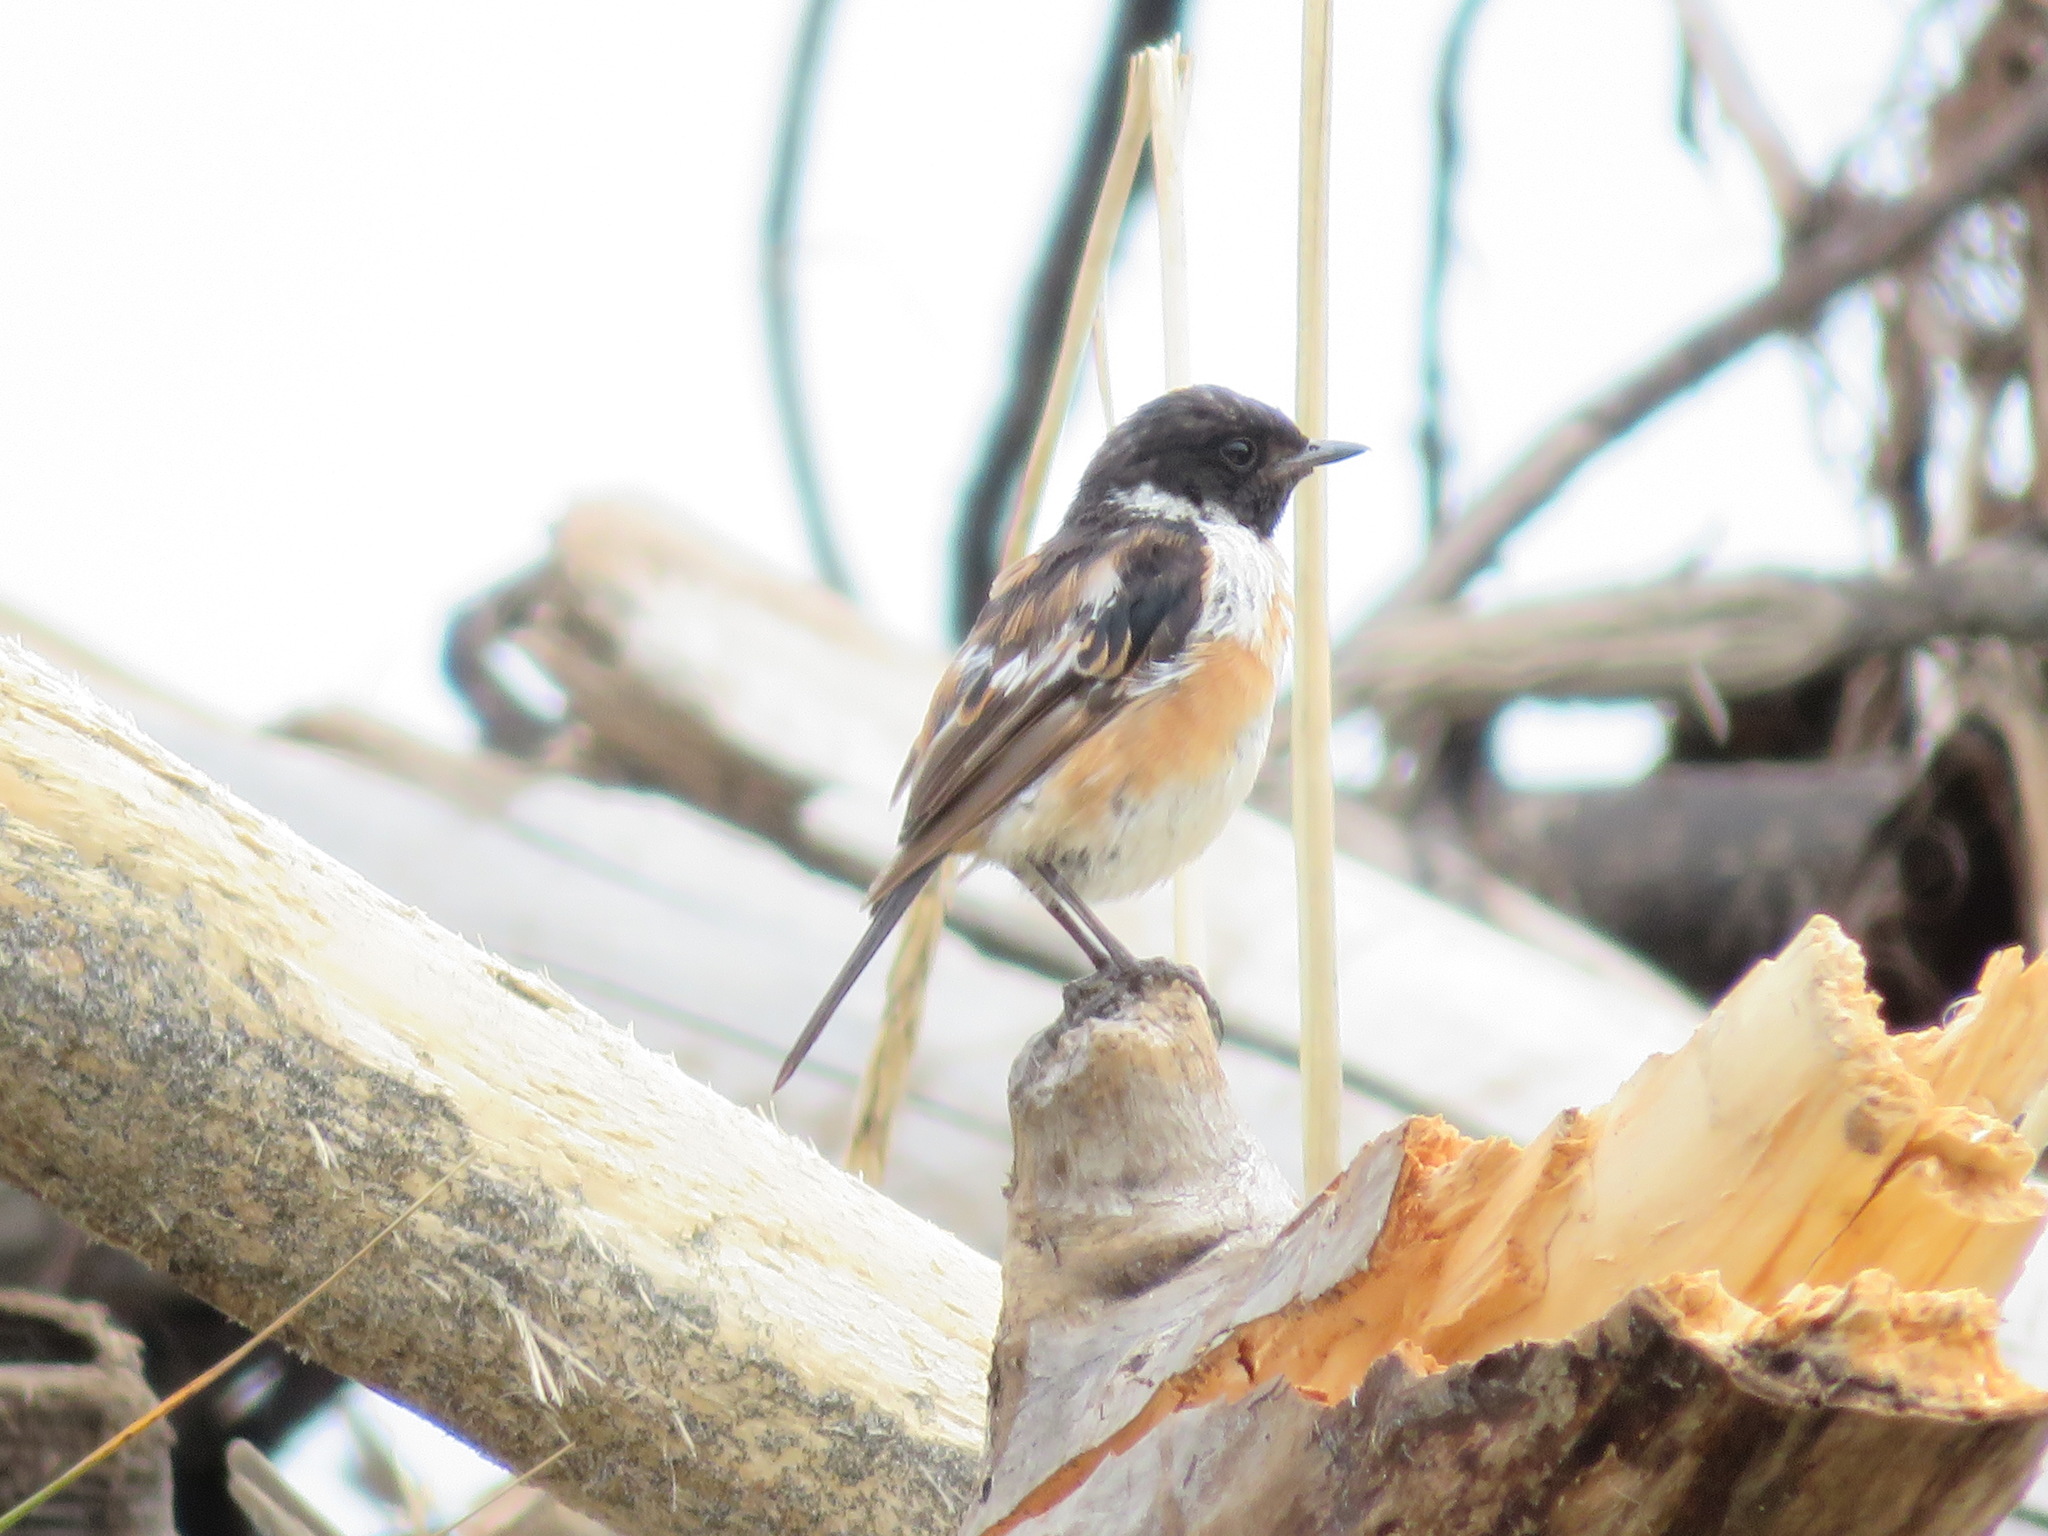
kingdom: Animalia
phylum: Chordata
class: Aves
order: Passeriformes
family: Muscicapidae
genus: Saxicola
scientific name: Saxicola stejnegeri
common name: Stejneger's stonechat
